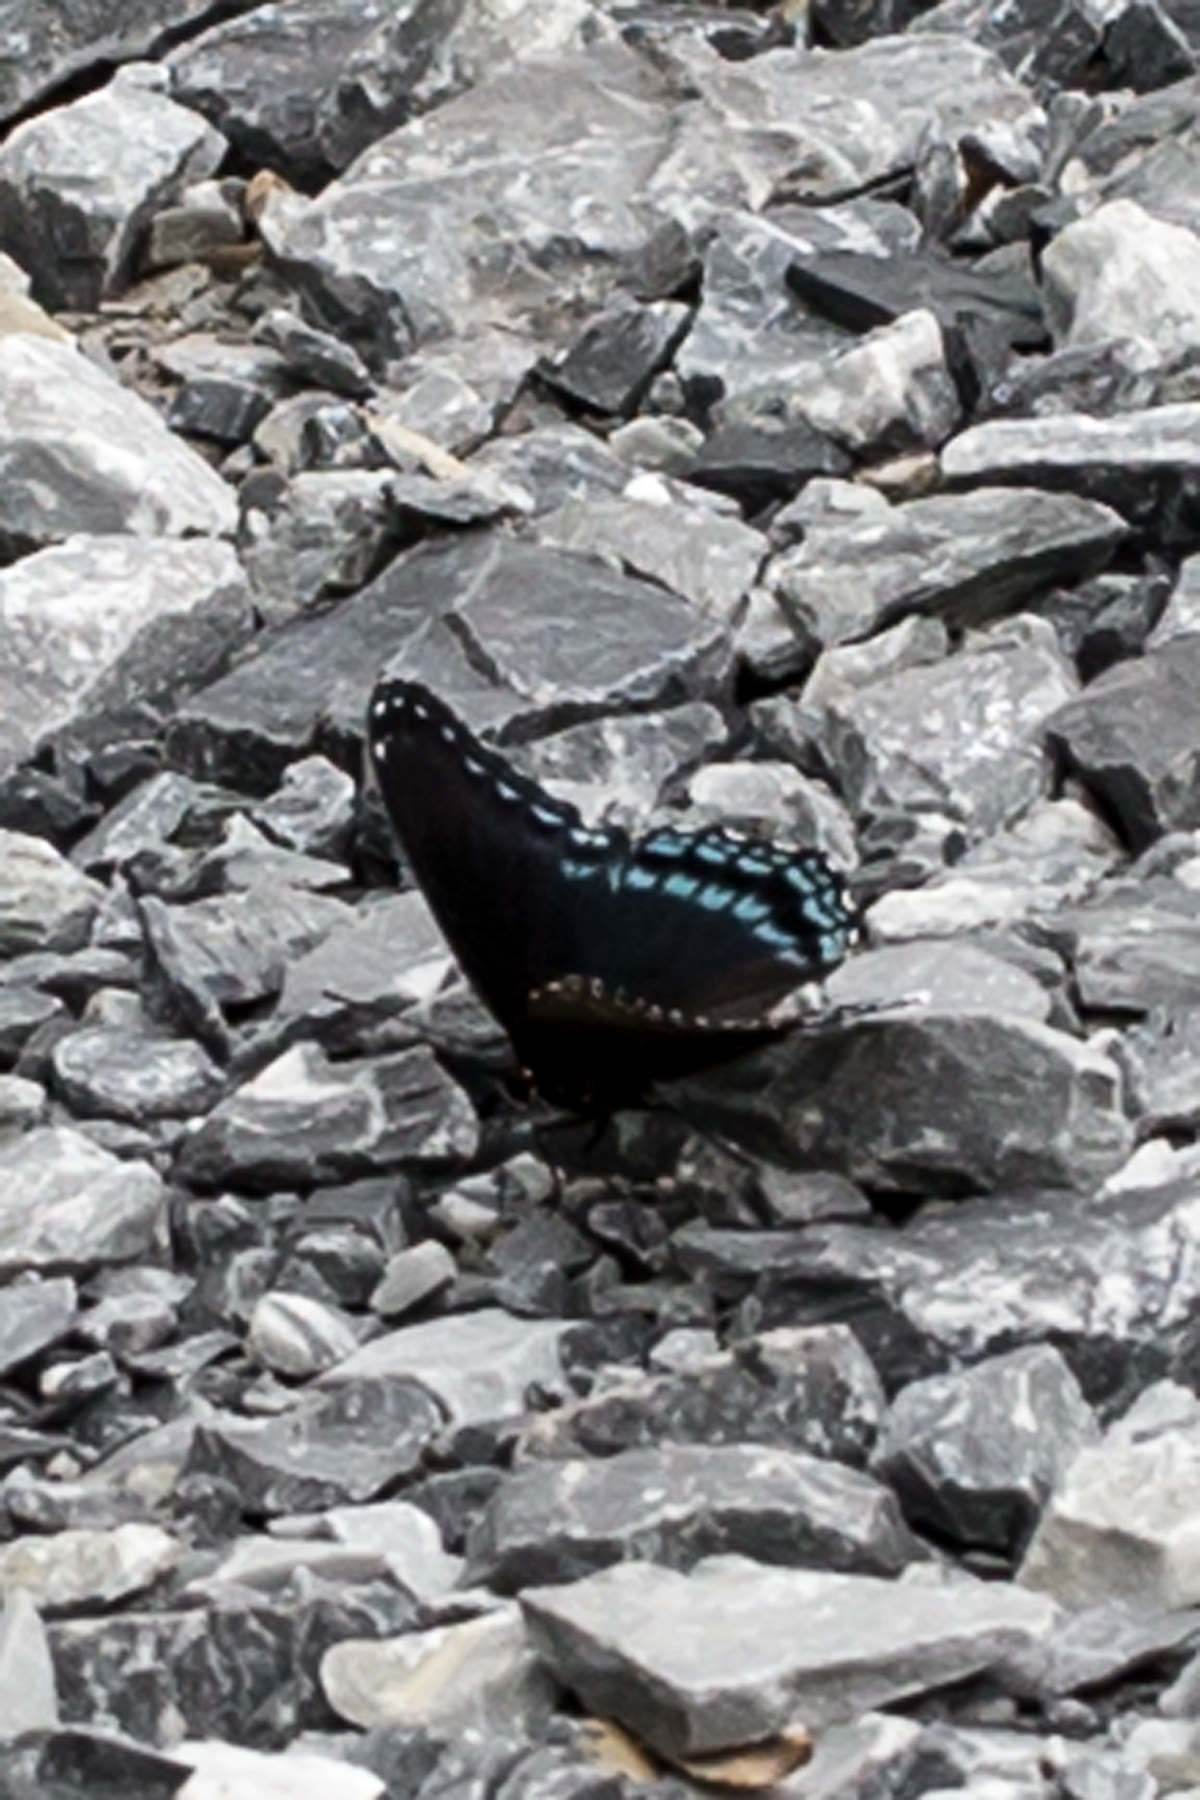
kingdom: Animalia
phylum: Arthropoda
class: Insecta
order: Lepidoptera
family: Nymphalidae
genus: Limenitis
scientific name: Limenitis astyanax
